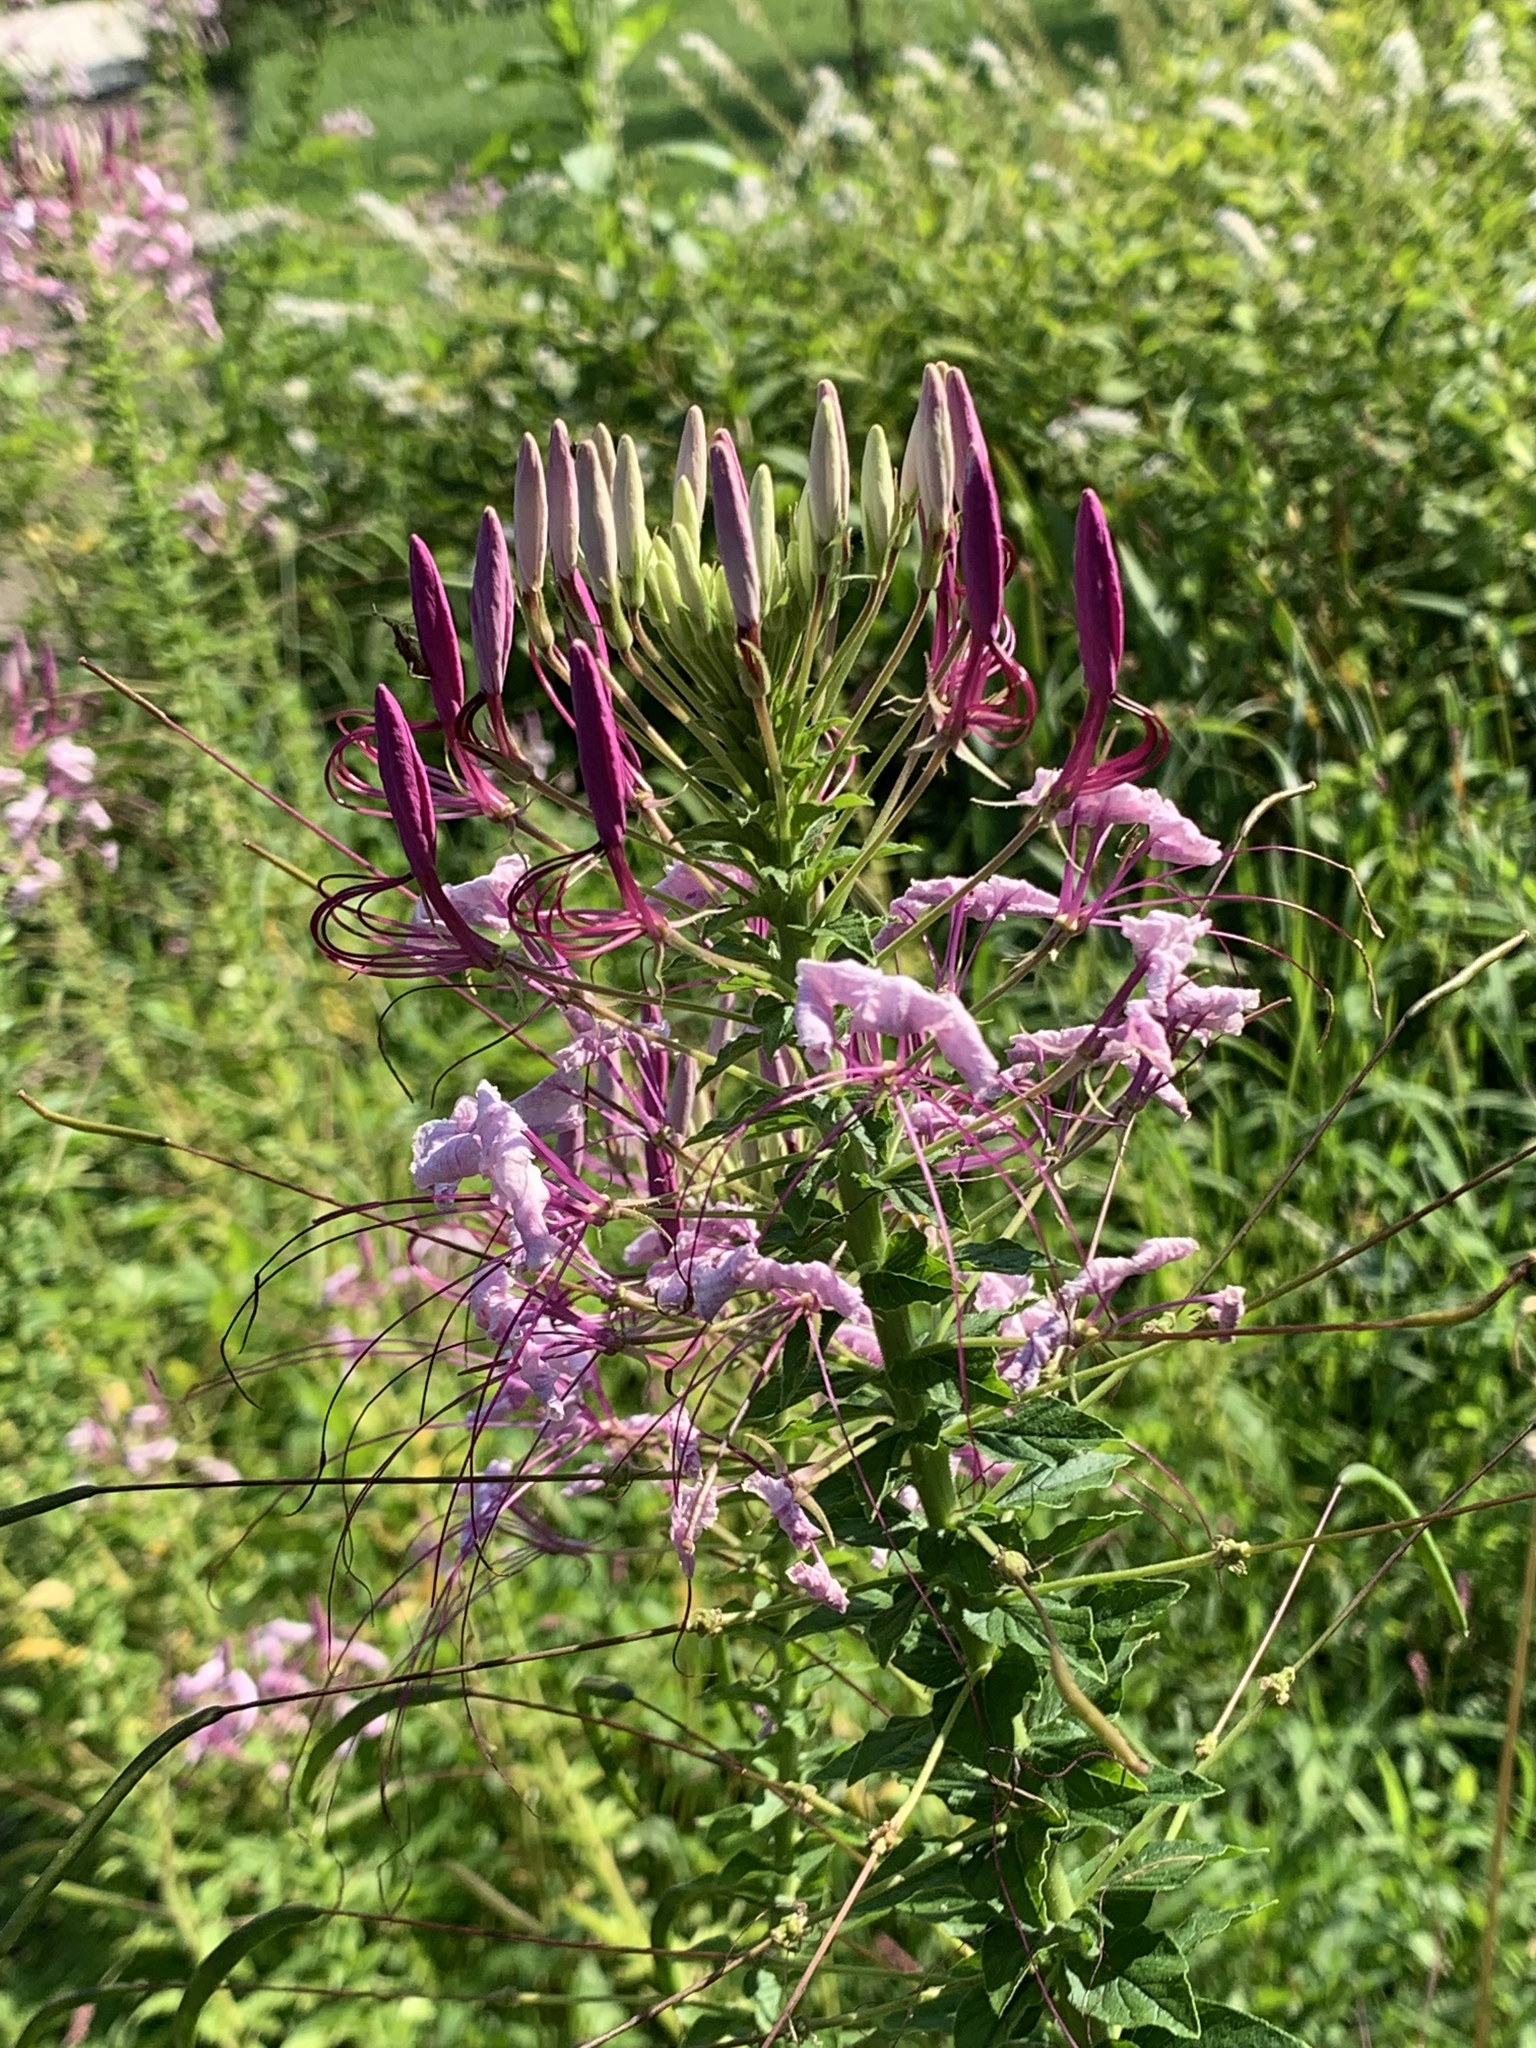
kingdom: Plantae
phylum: Tracheophyta
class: Magnoliopsida
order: Brassicales
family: Cleomaceae
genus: Tarenaya
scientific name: Tarenaya houtteana
